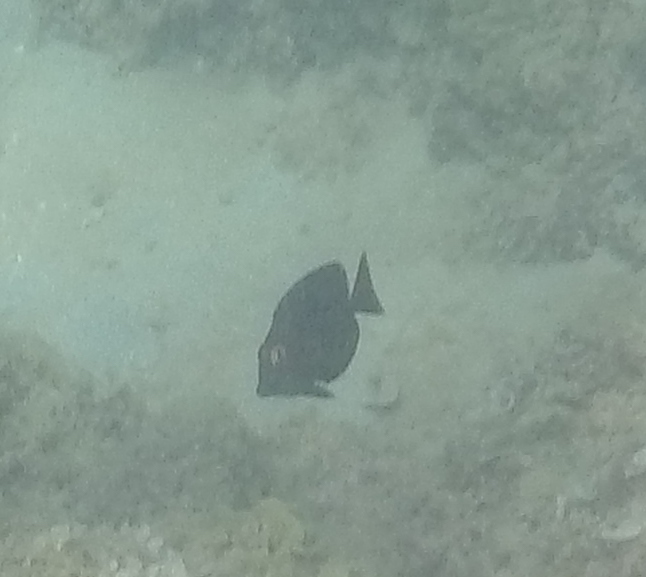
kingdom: Animalia
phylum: Chordata
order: Perciformes
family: Acanthuridae
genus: Ctenochaetus
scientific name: Ctenochaetus strigosus
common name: Bristletoothed surgeonfish
